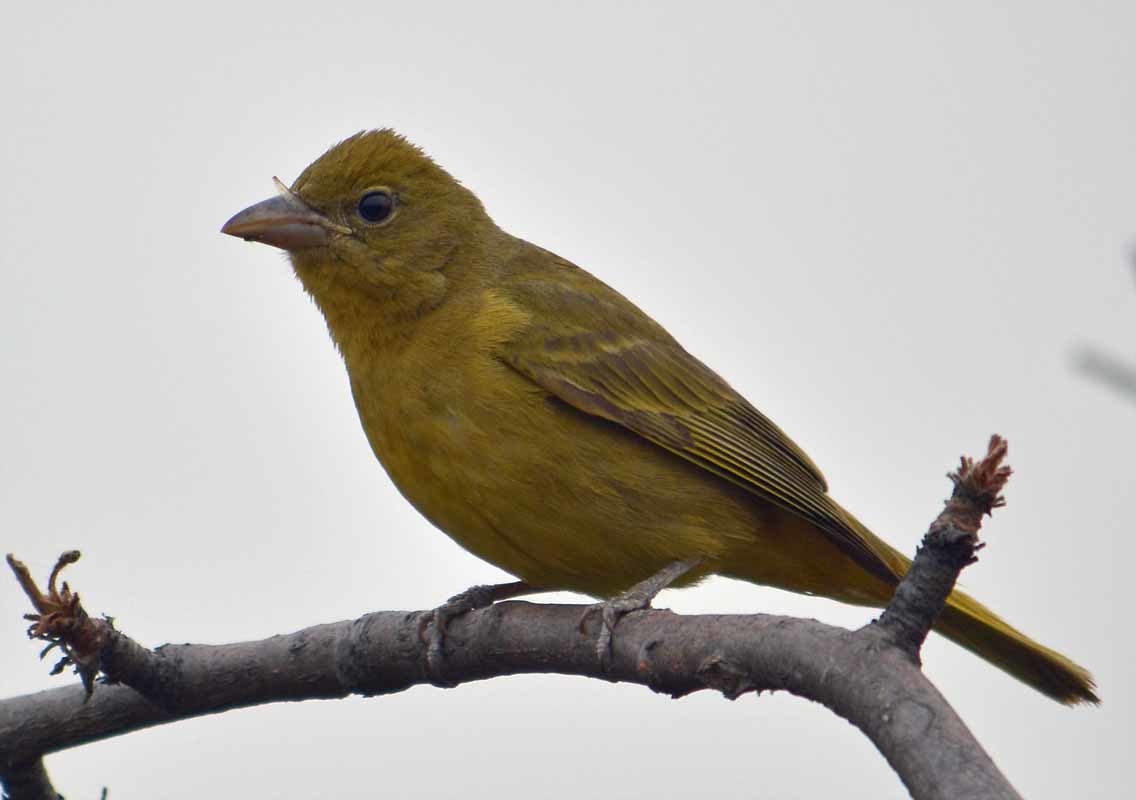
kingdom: Animalia
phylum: Chordata
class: Aves
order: Passeriformes
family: Cardinalidae
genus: Piranga
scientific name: Piranga rubra
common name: Summer tanager
